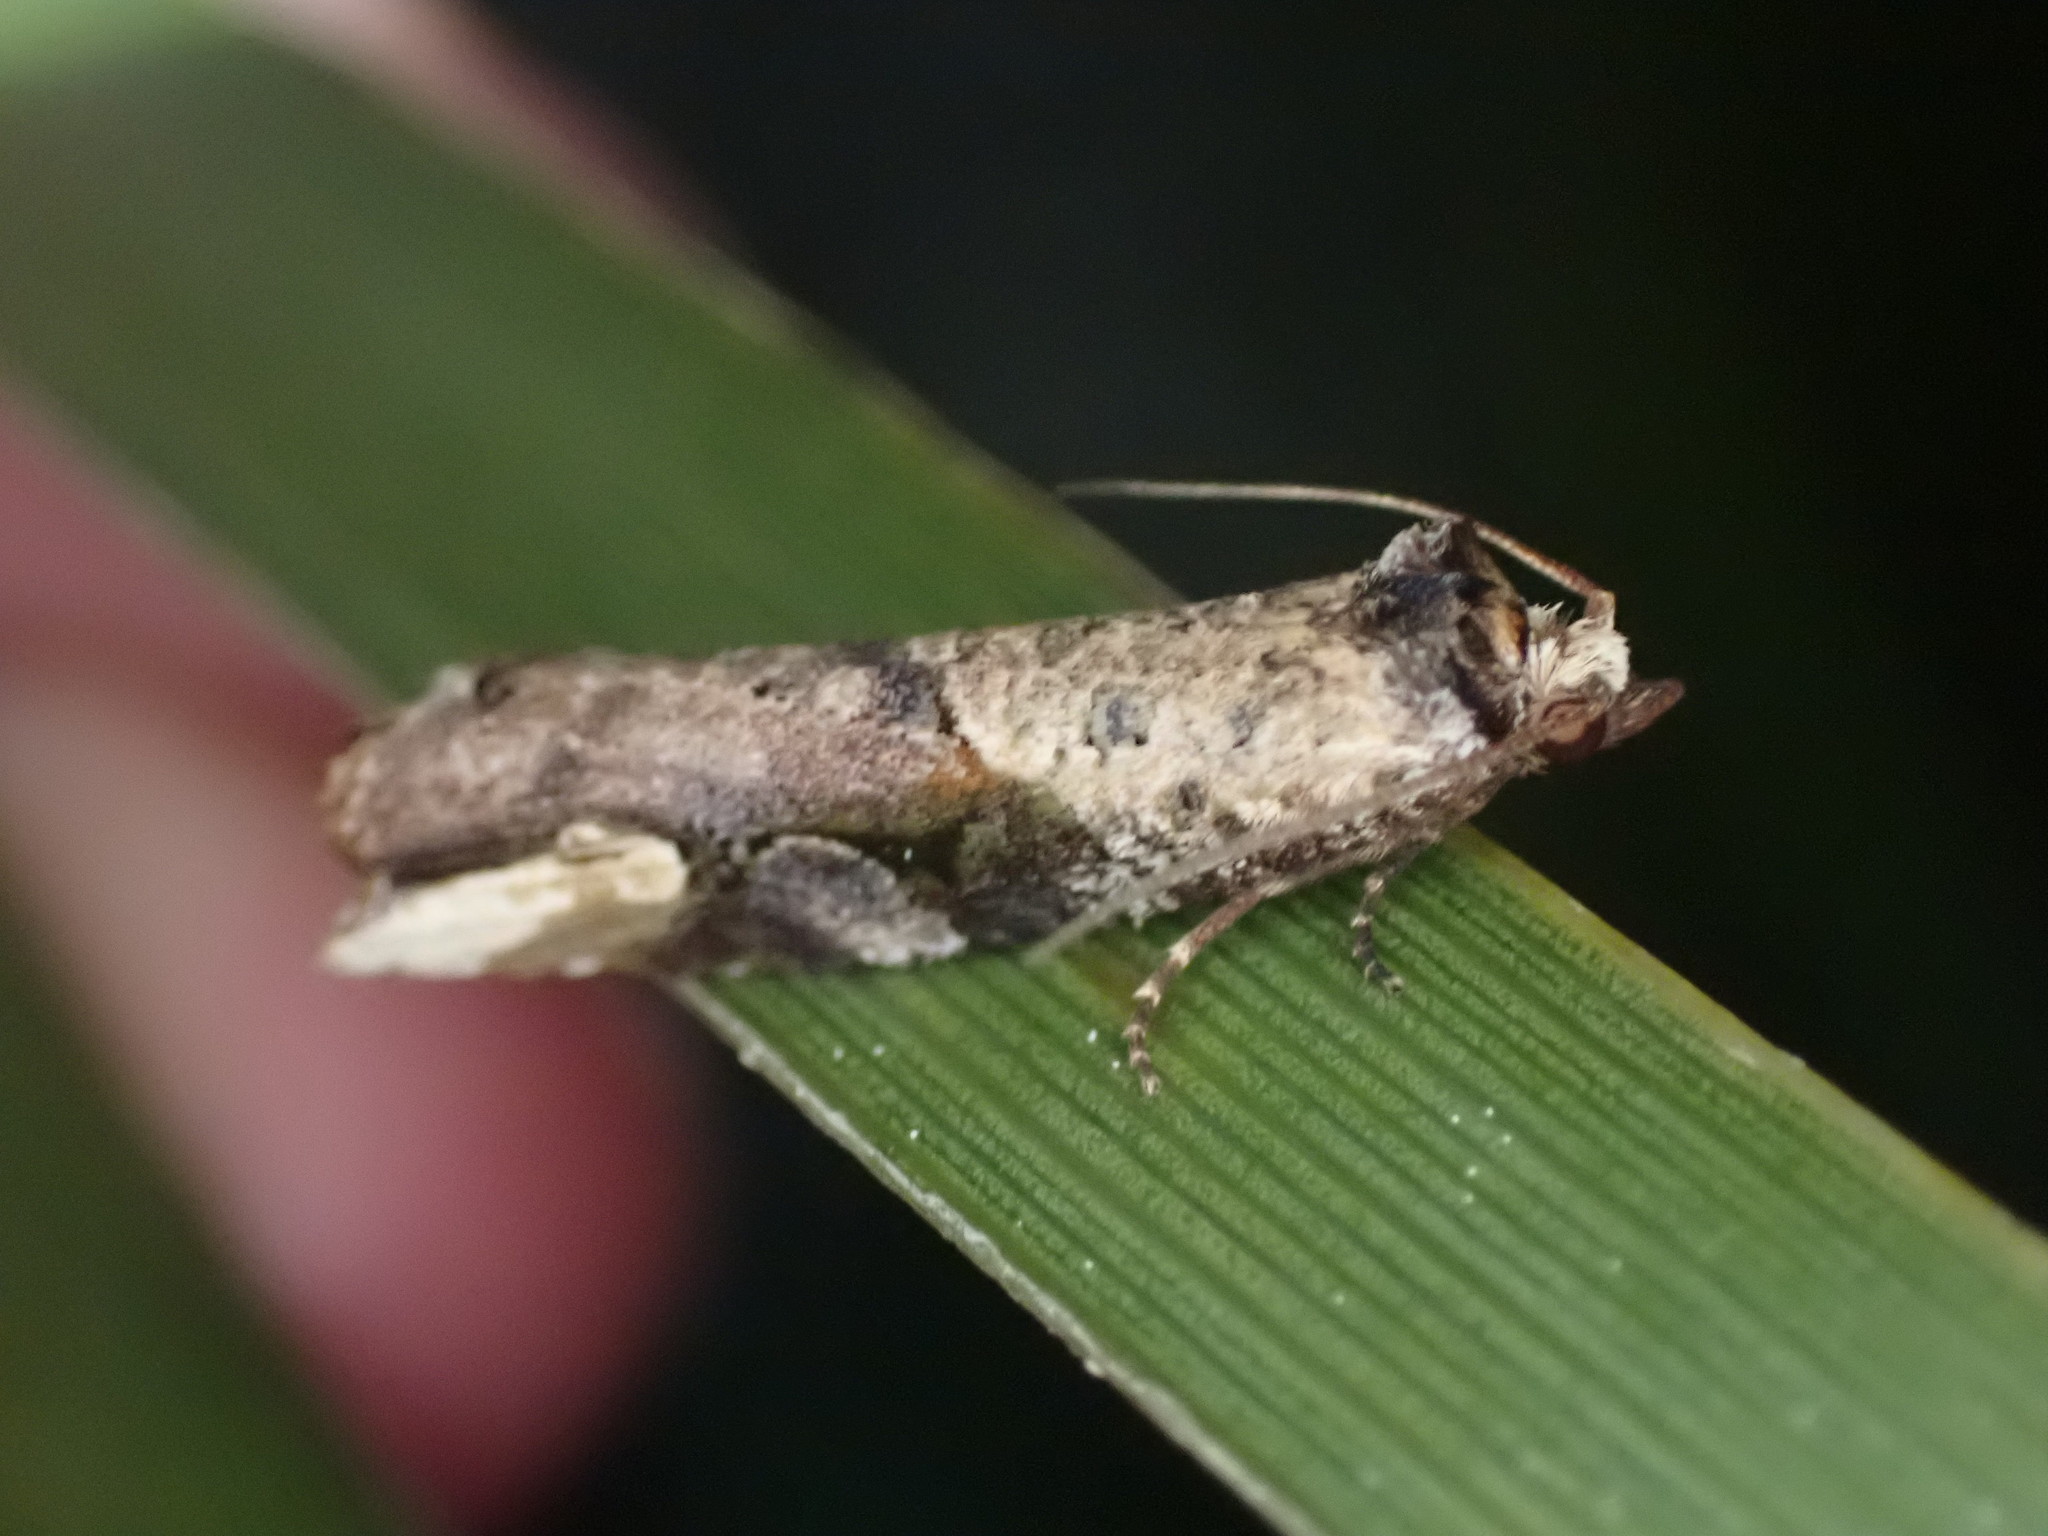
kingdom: Animalia
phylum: Arthropoda
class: Insecta
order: Lepidoptera
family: Tortricidae
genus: Epalxiphora
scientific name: Epalxiphora axenana
